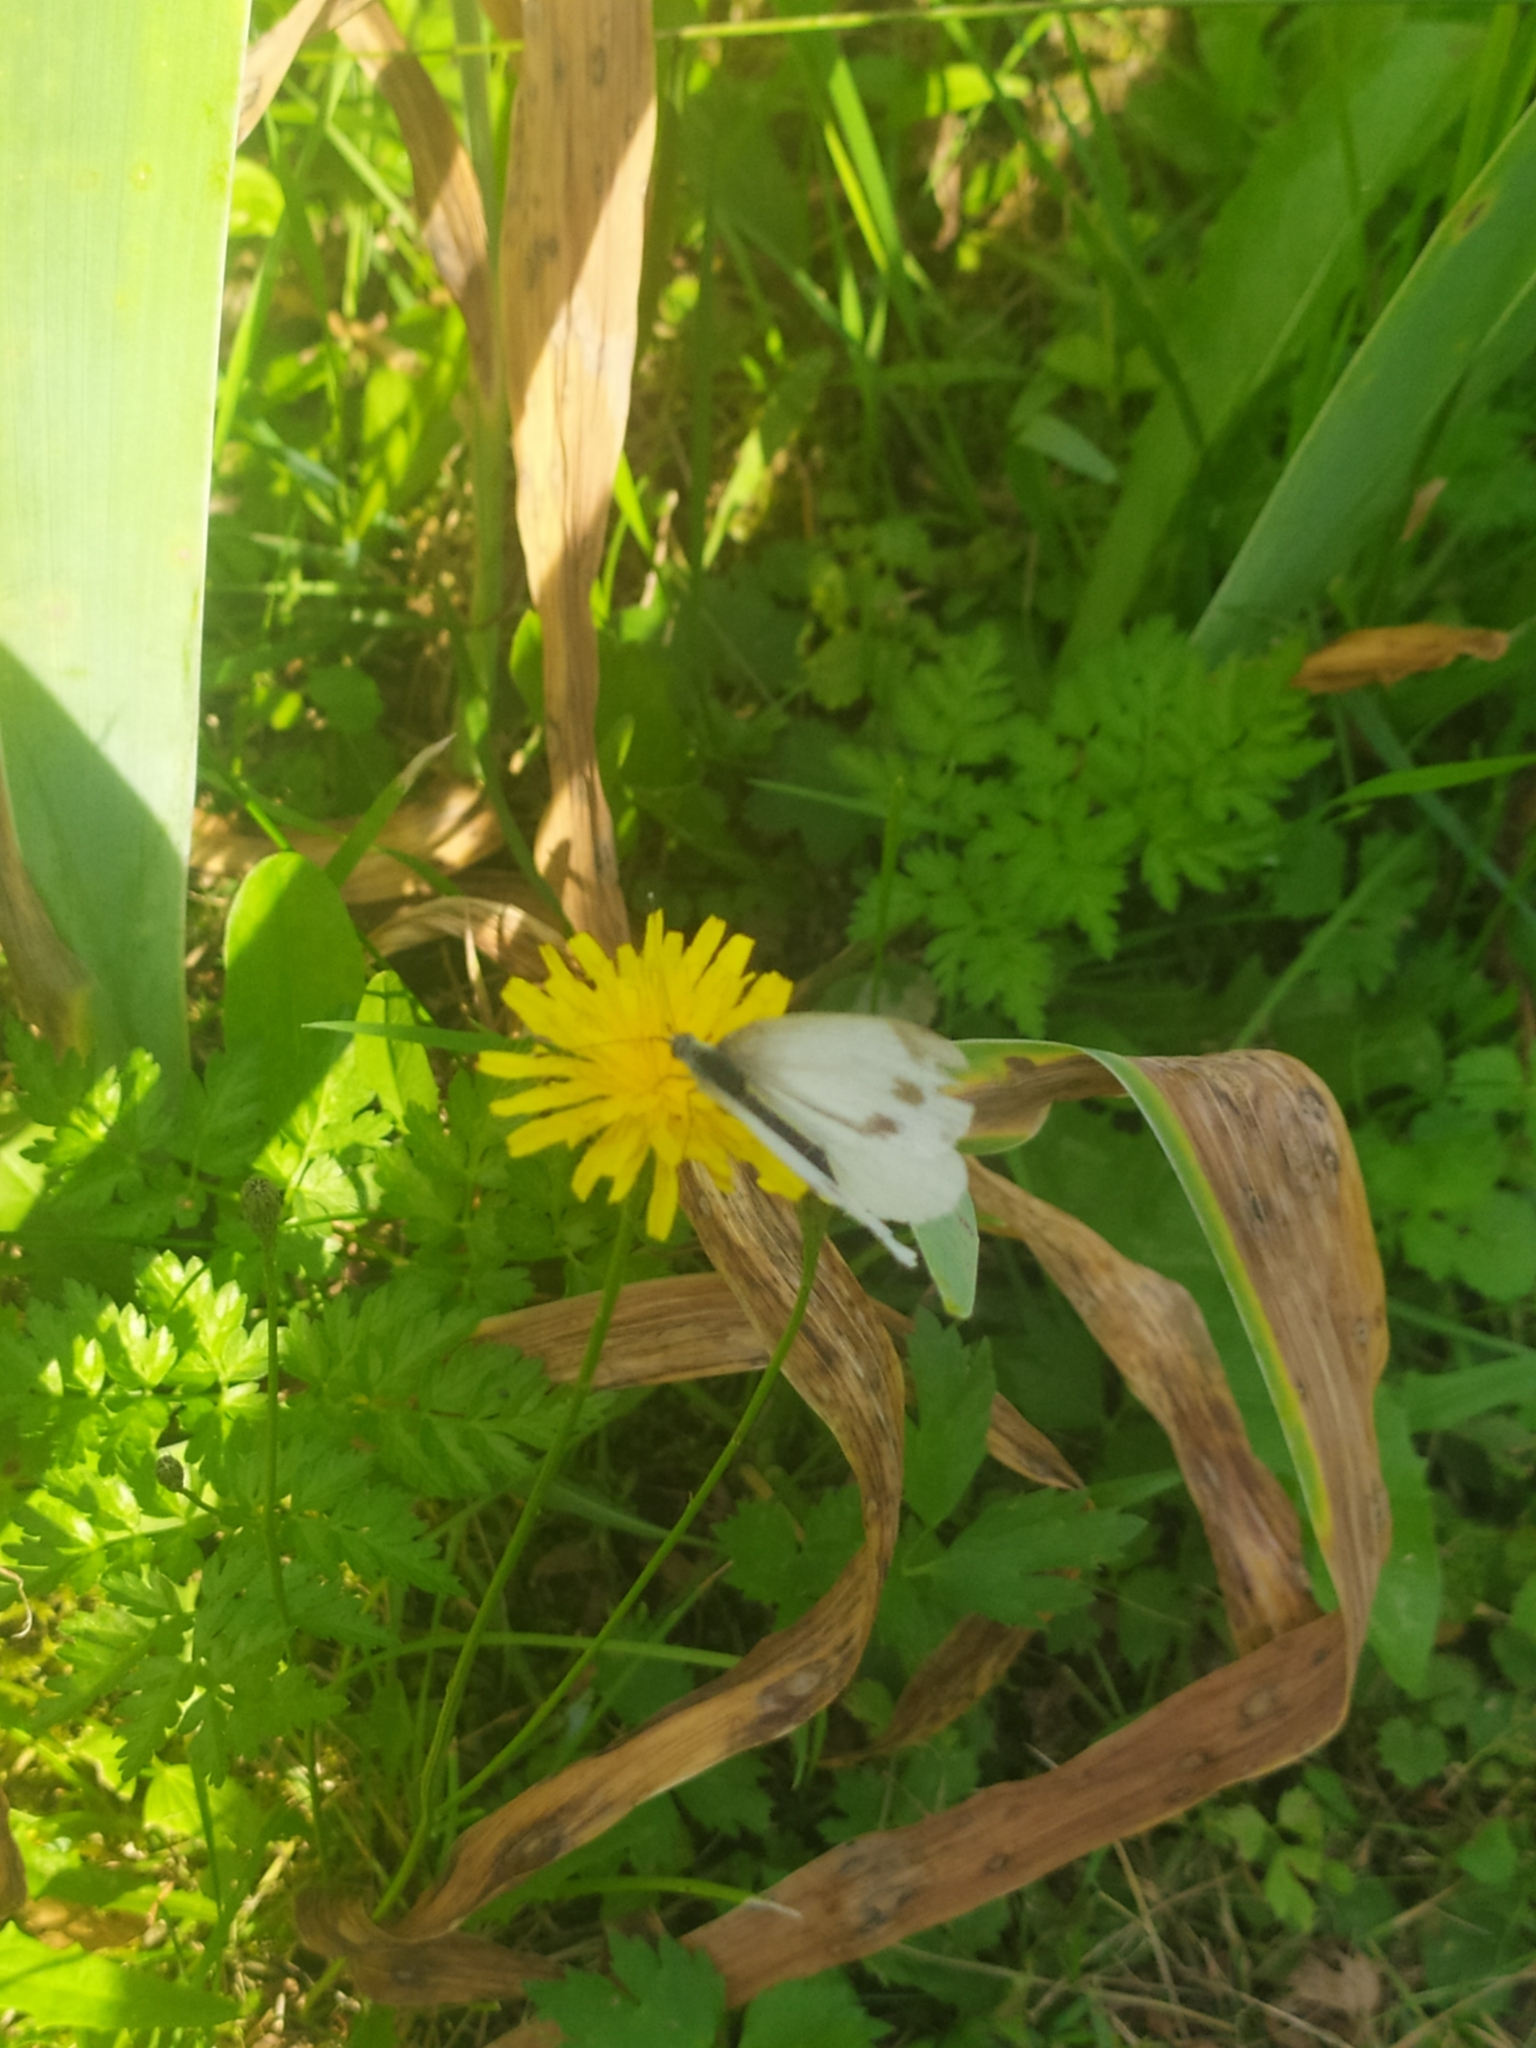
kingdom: Animalia
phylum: Arthropoda
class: Insecta
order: Lepidoptera
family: Pieridae
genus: Pieris
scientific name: Pieris napi
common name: Green-veined white
